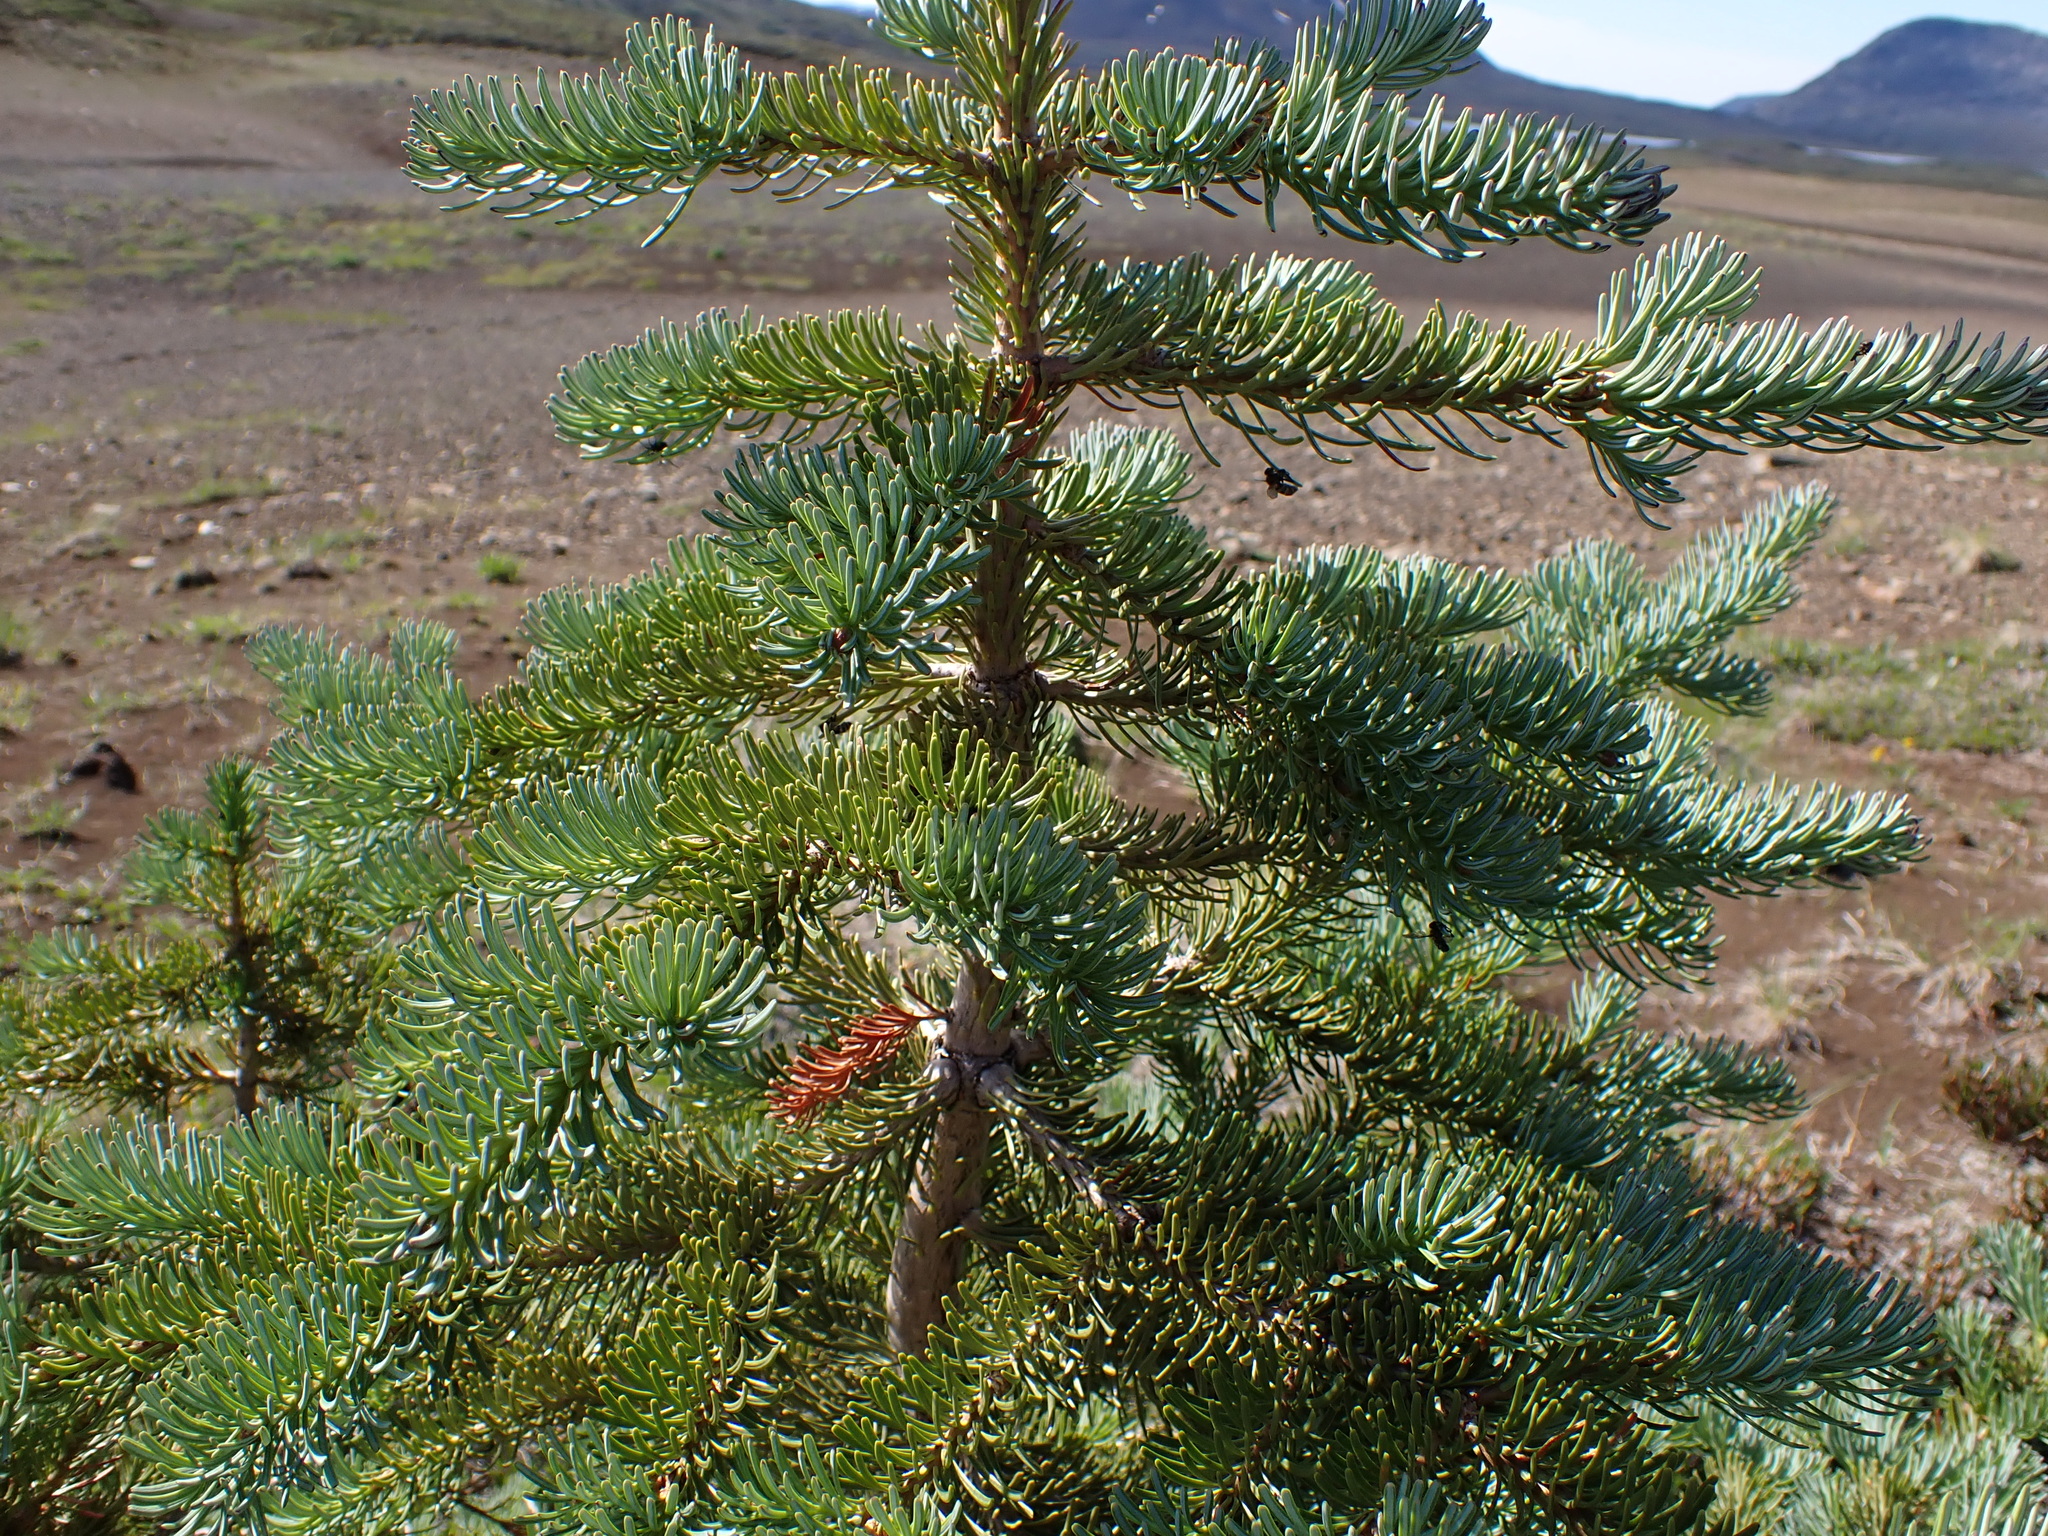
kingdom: Plantae
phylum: Tracheophyta
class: Pinopsida
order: Pinales
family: Pinaceae
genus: Abies
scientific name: Abies lasiocarpa
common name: Subalpine fir
